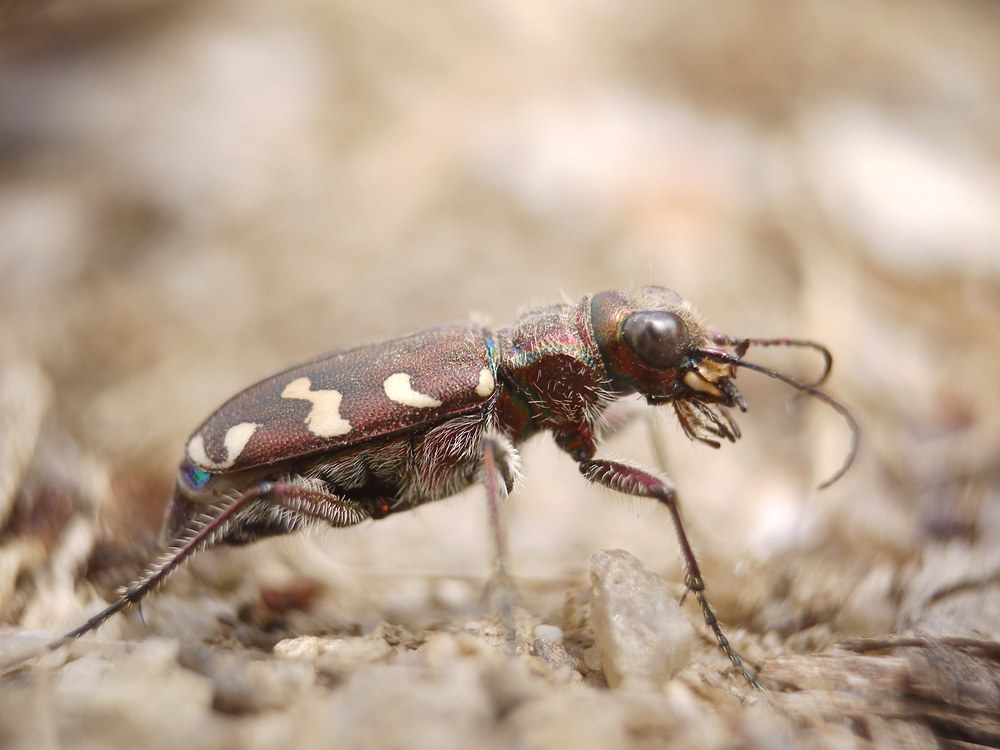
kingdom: Animalia
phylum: Arthropoda
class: Insecta
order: Coleoptera
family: Carabidae
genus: Cicindela
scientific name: Cicindela soluta
